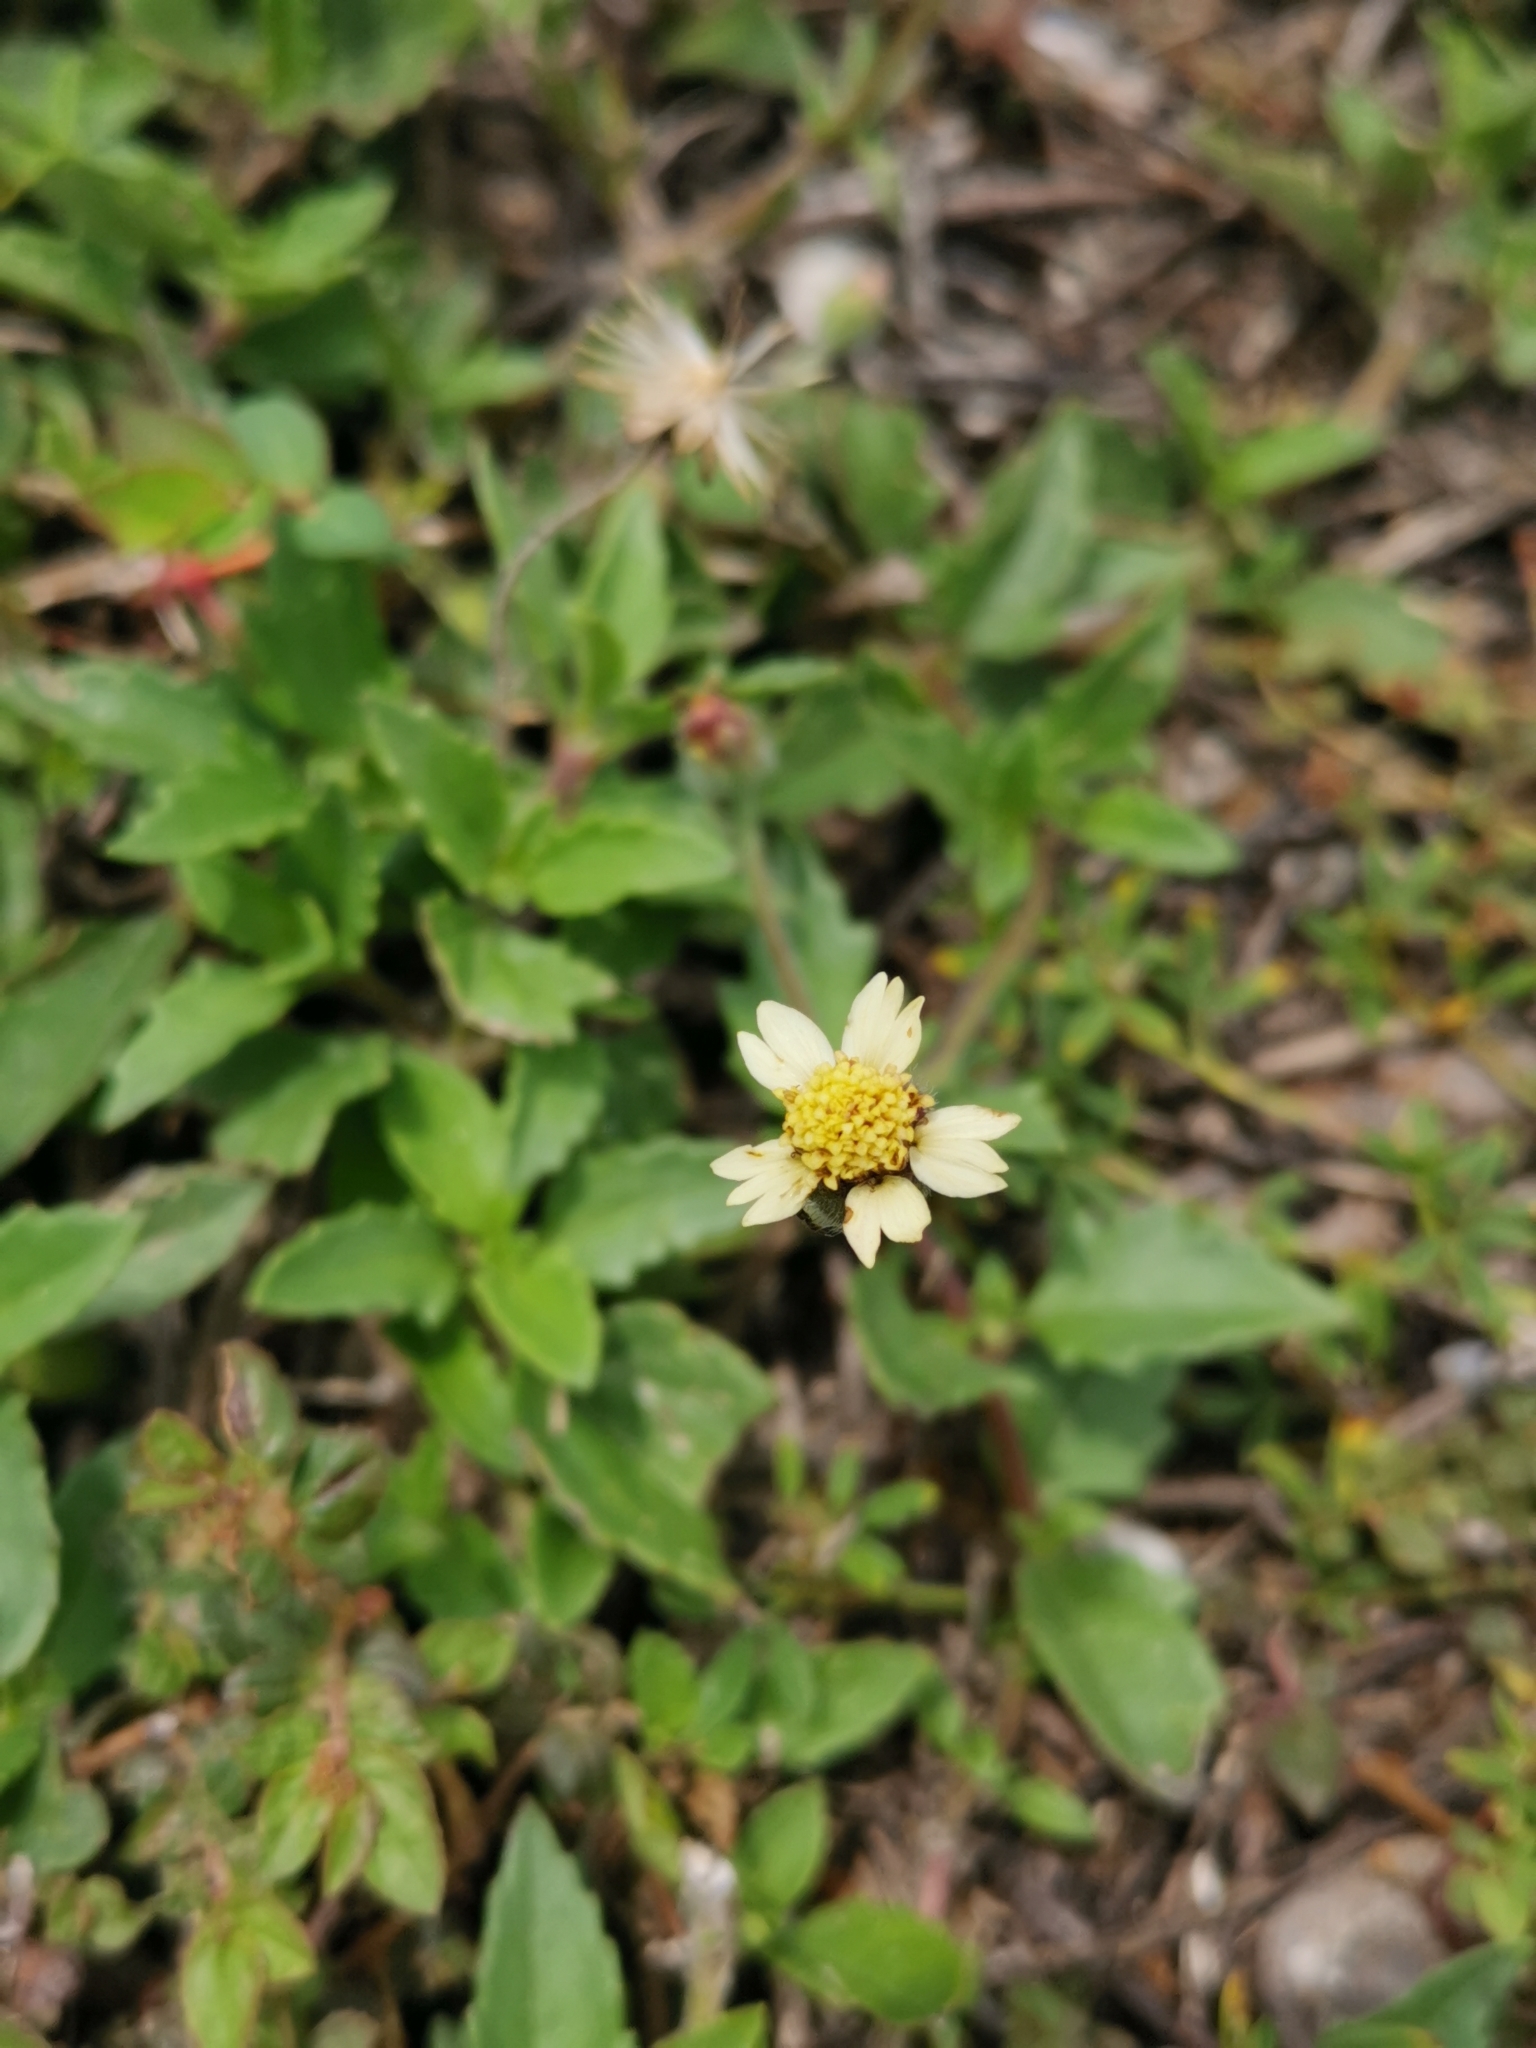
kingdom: Plantae
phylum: Tracheophyta
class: Magnoliopsida
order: Asterales
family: Asteraceae
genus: Tridax
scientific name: Tridax procumbens
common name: Coatbuttons
